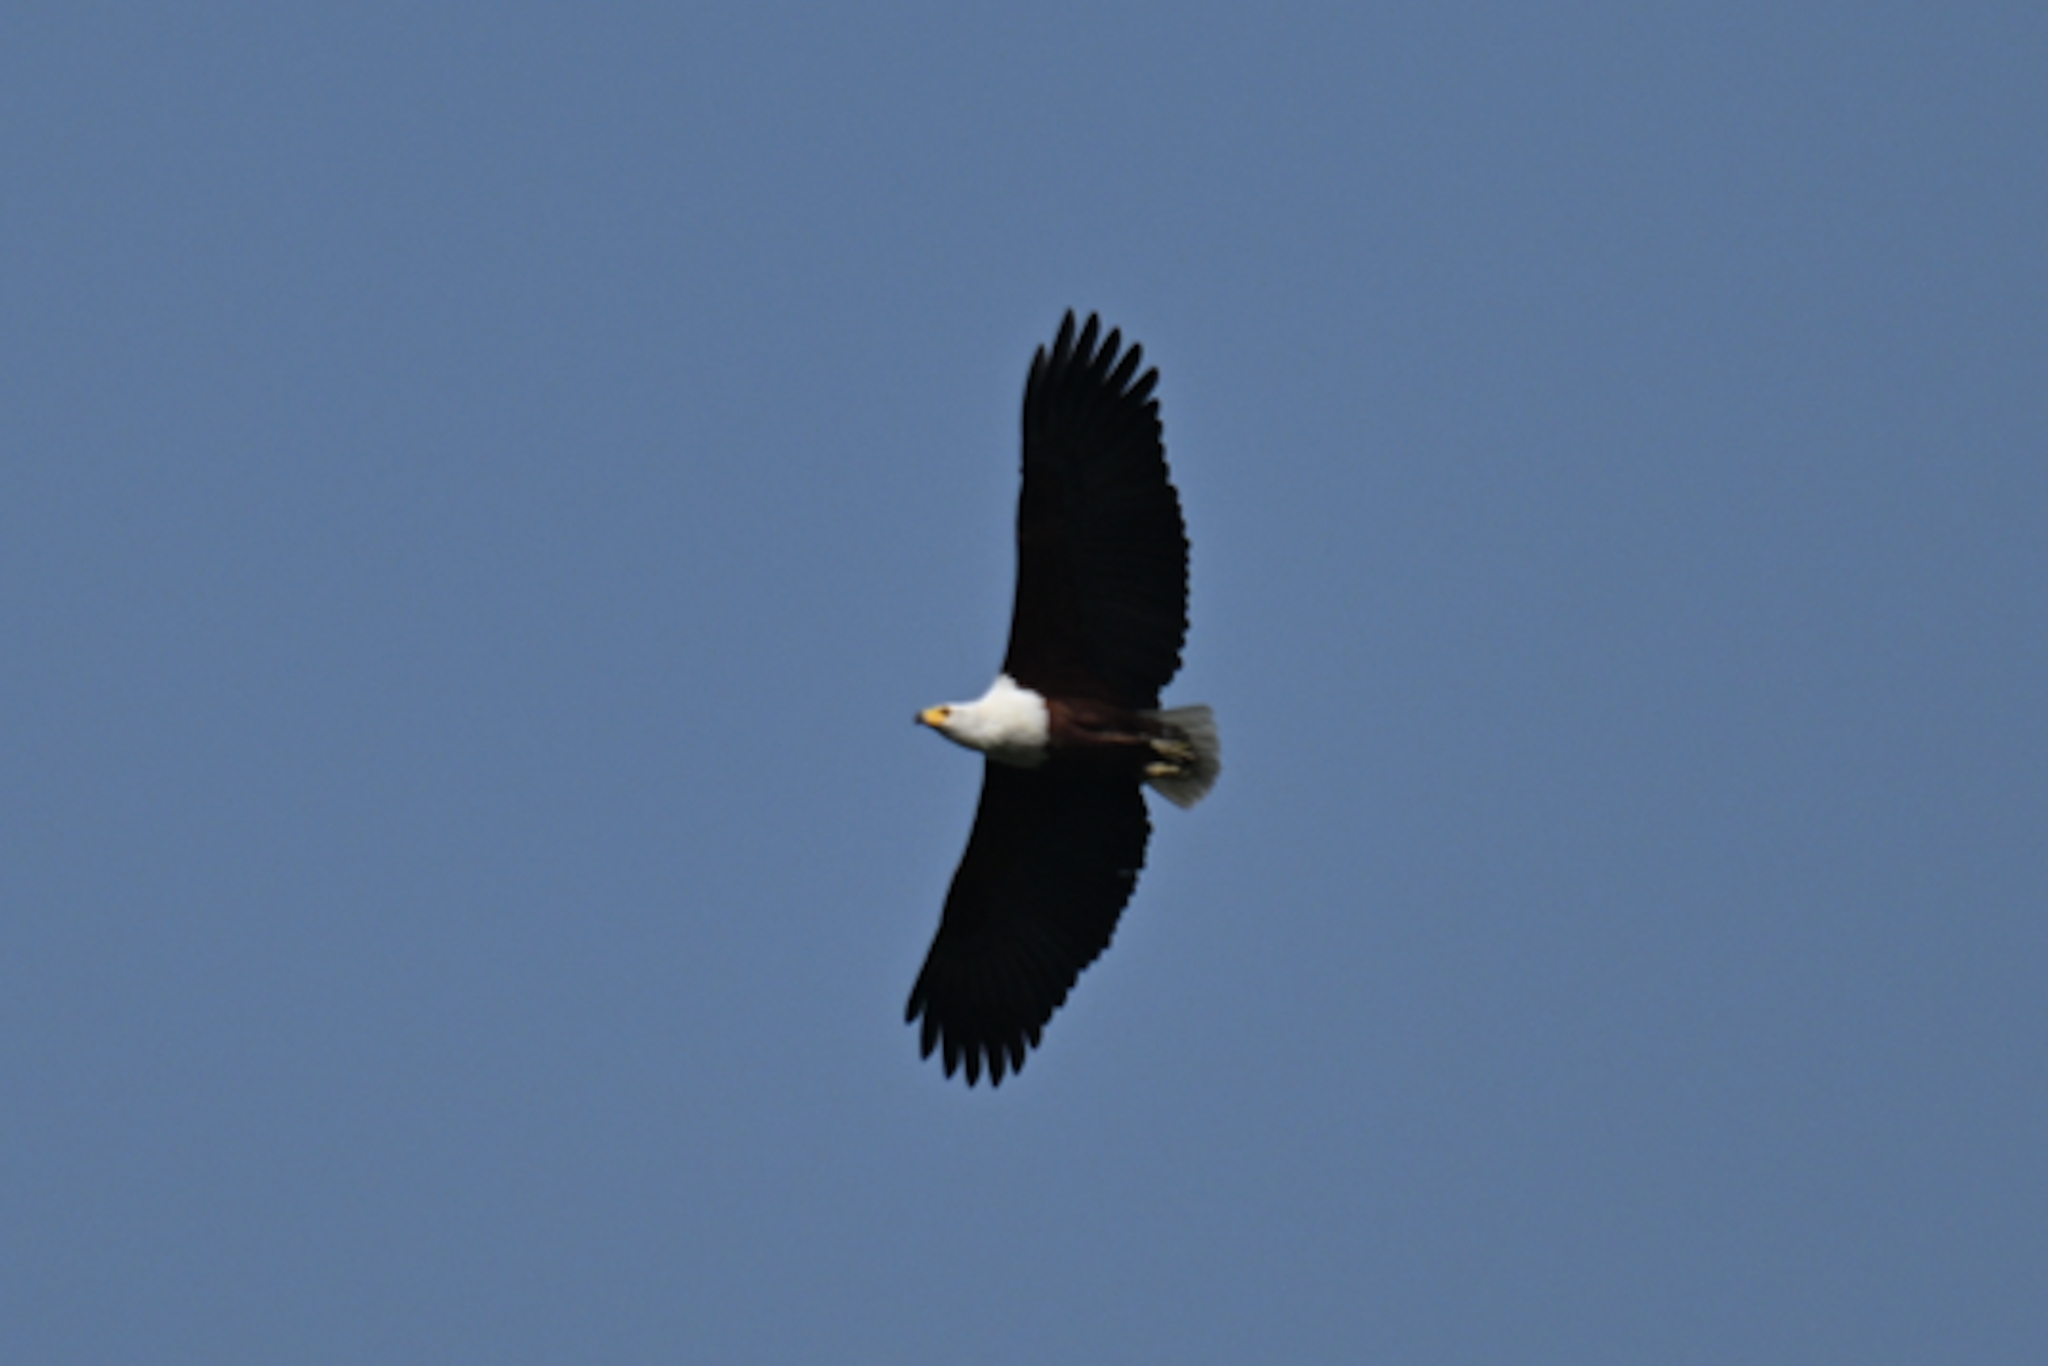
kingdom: Animalia
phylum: Chordata
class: Aves
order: Accipitriformes
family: Accipitridae
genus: Haliaeetus
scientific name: Haliaeetus vocifer
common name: African fish eagle
